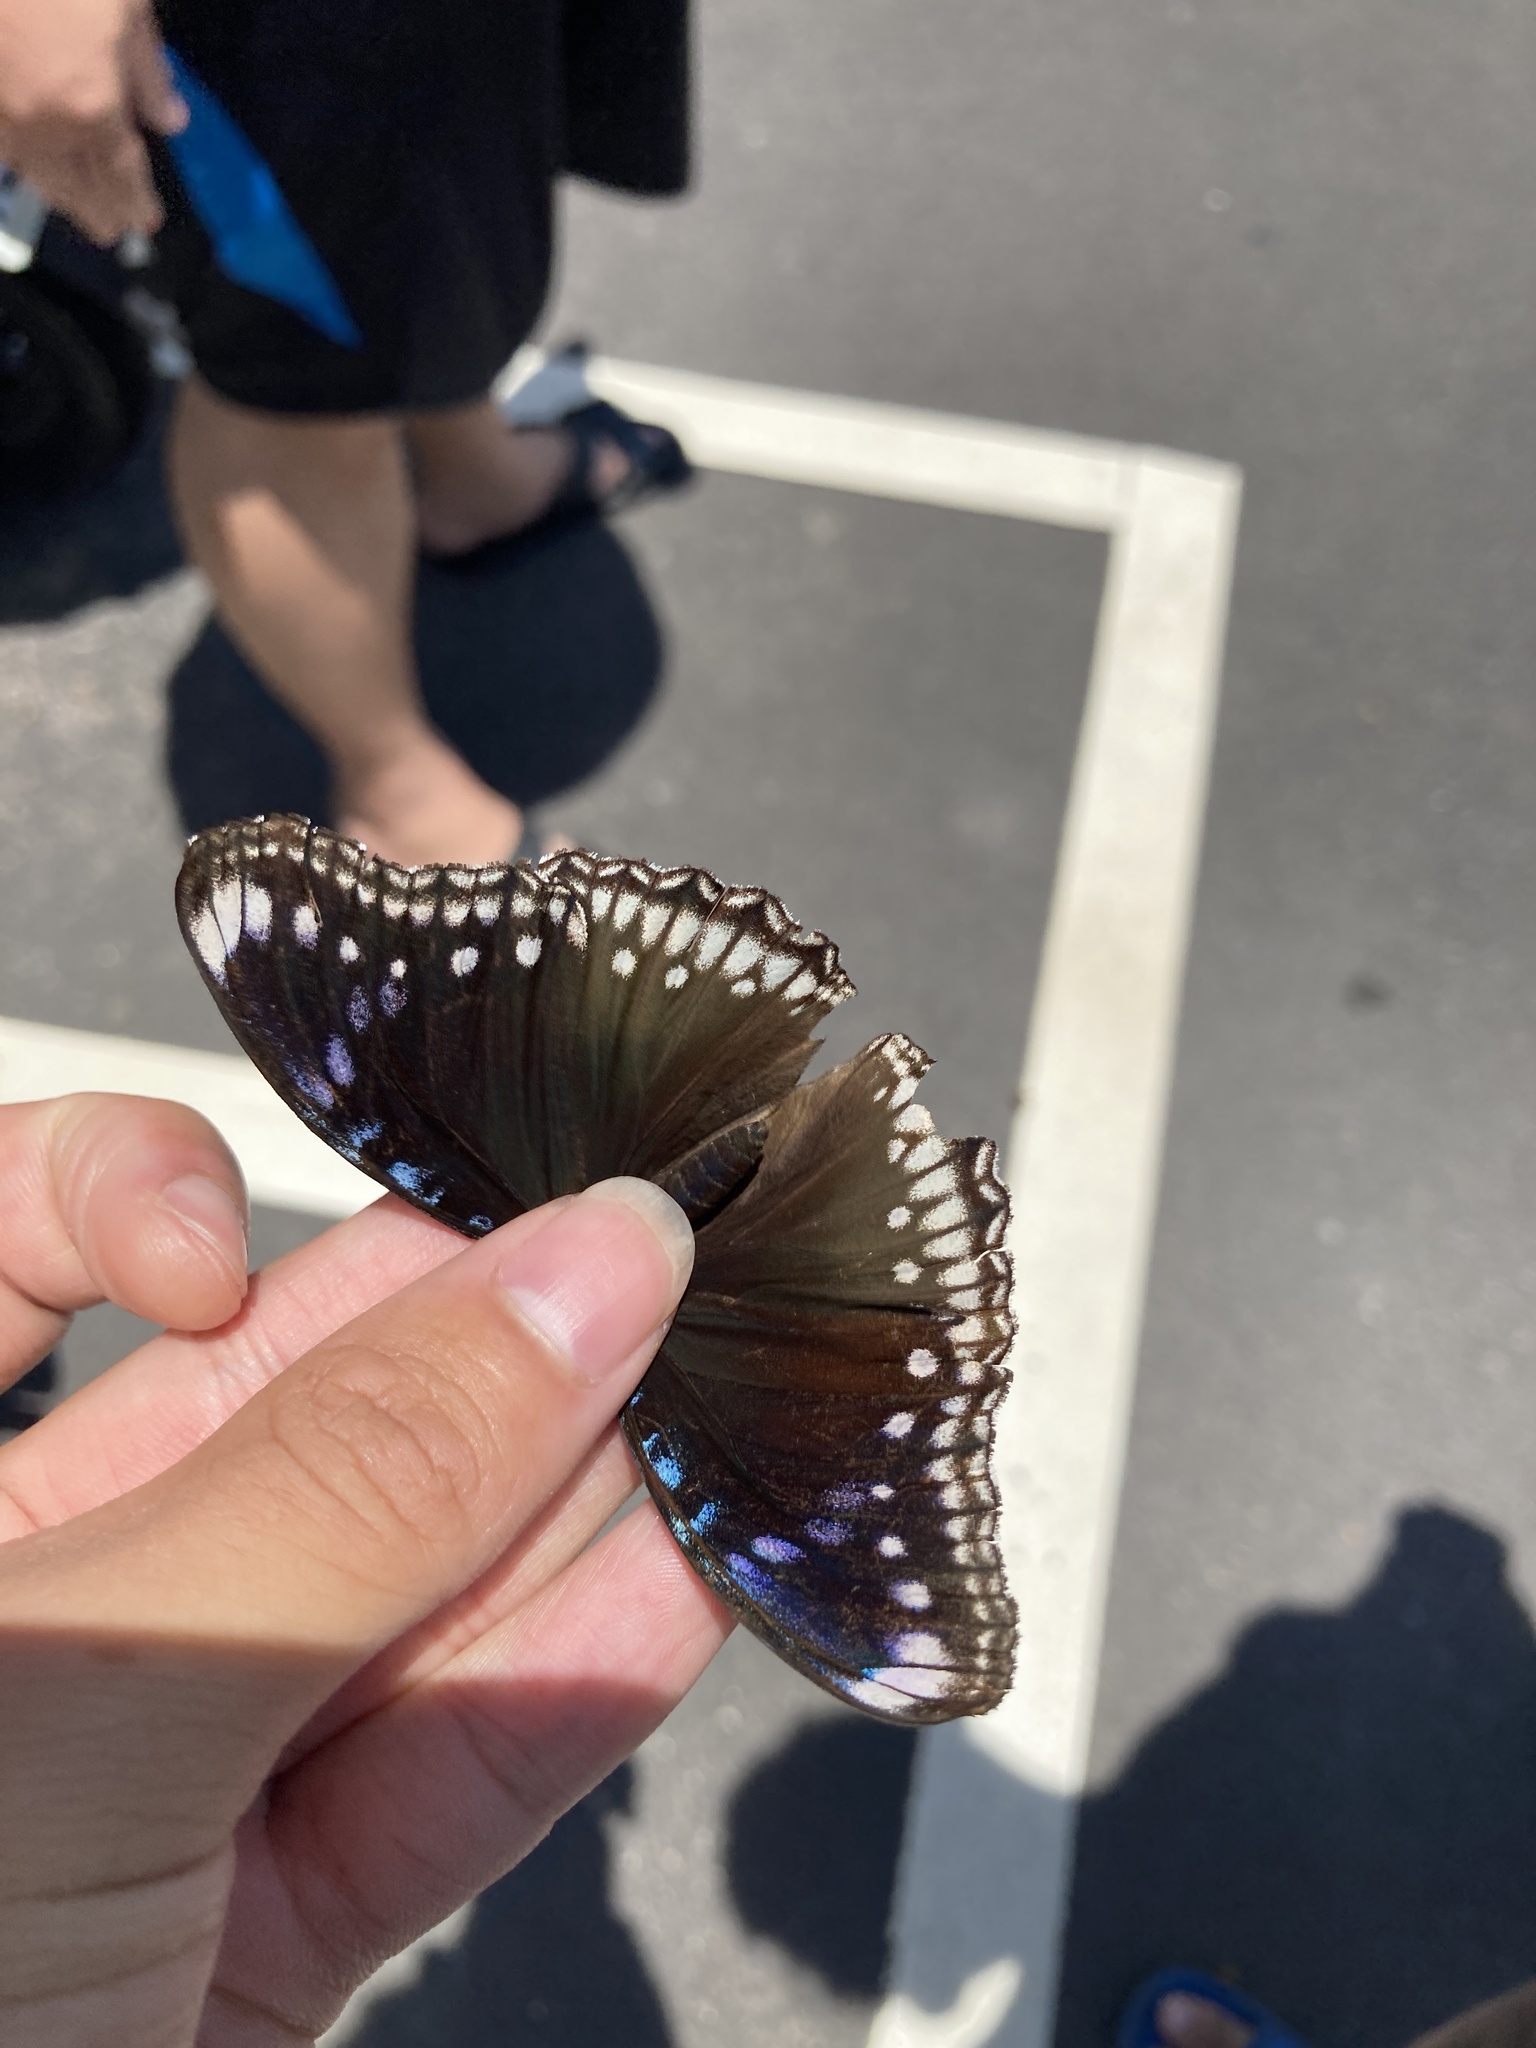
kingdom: Animalia
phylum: Arthropoda
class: Insecta
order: Lepidoptera
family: Nymphalidae
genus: Hypolimnas
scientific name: Hypolimnas bolina
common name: Great eggfly
